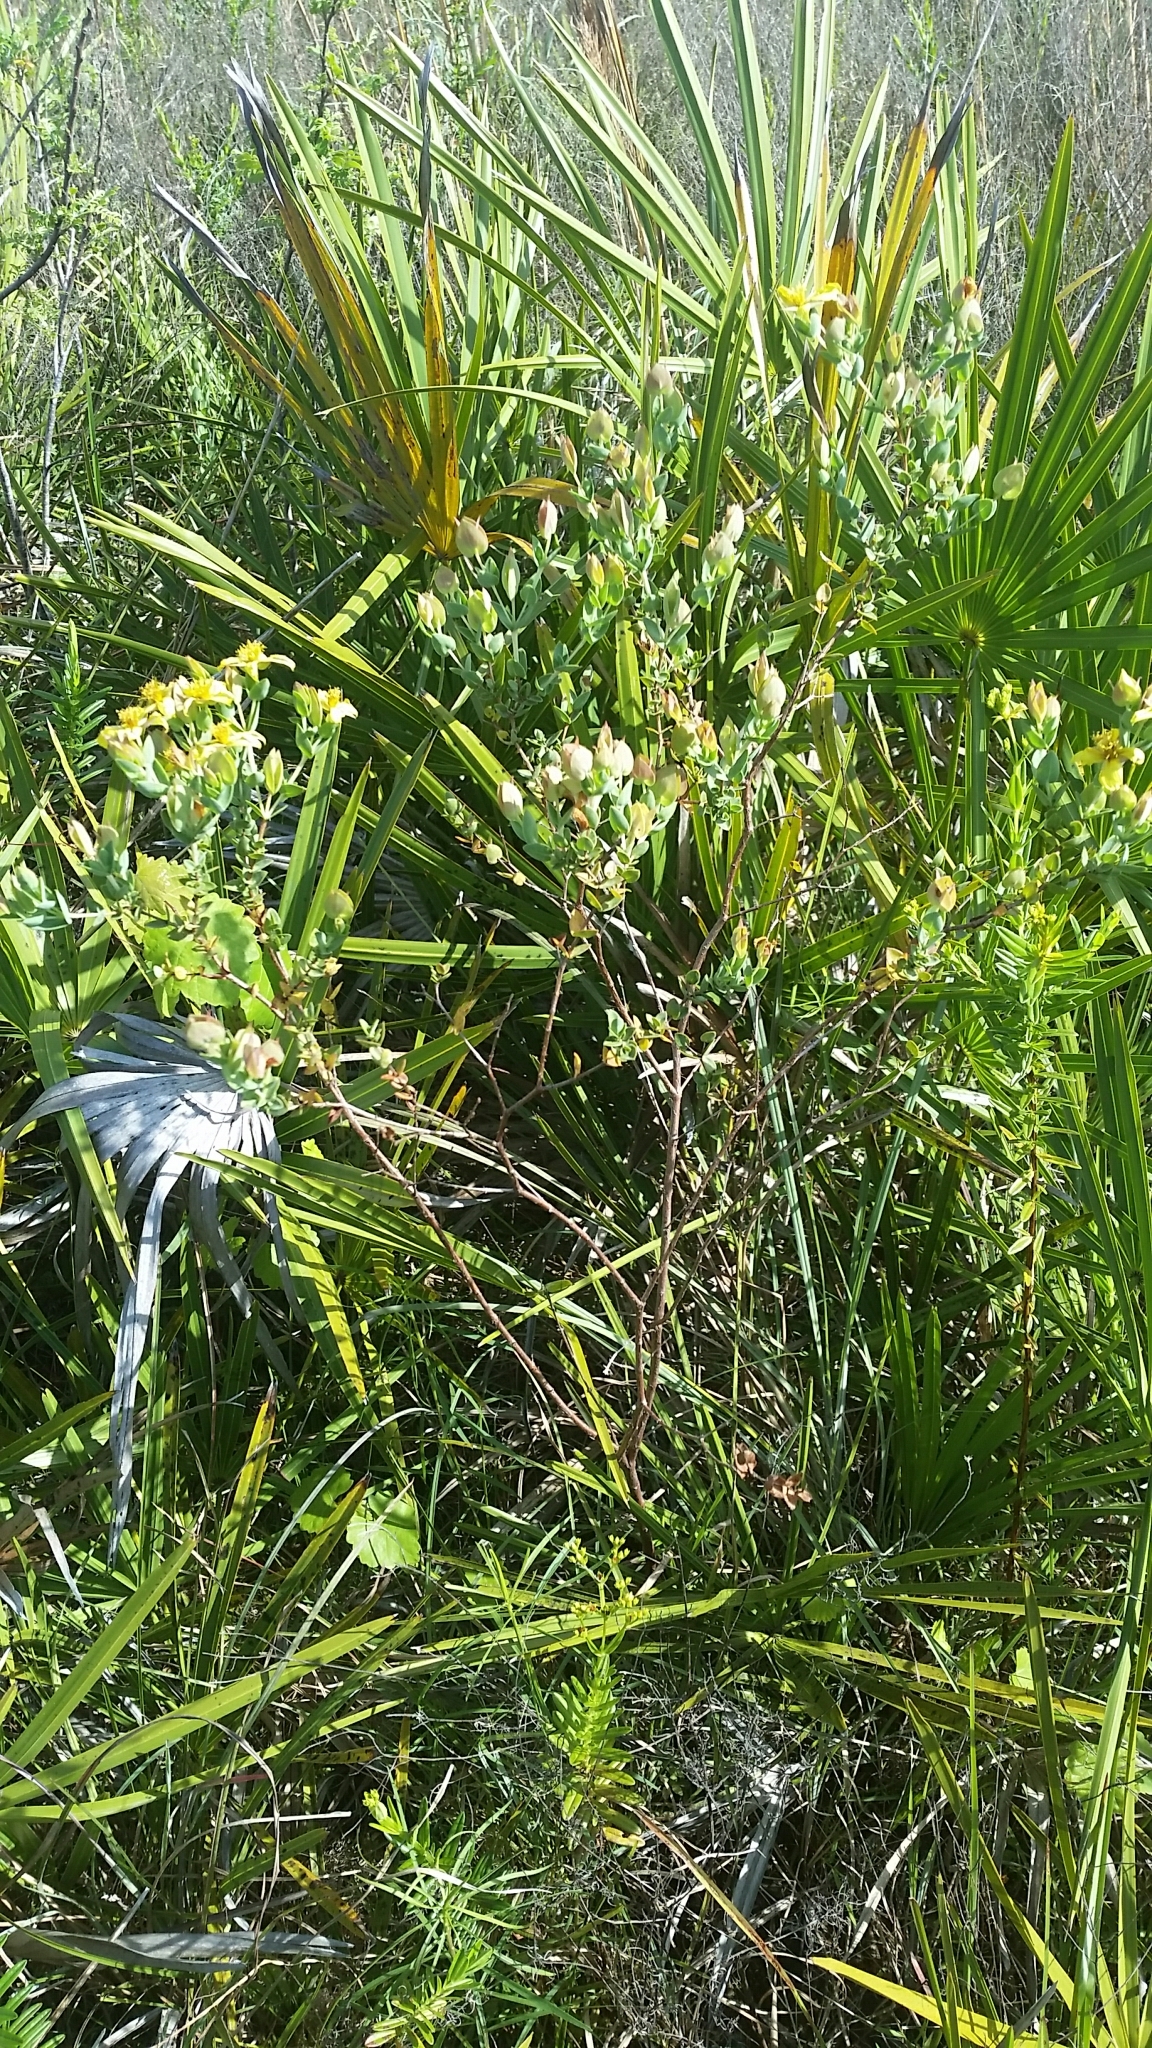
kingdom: Plantae
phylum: Tracheophyta
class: Magnoliopsida
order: Malpighiales
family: Hypericaceae
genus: Hypericum
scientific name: Hypericum tetrapetalum
